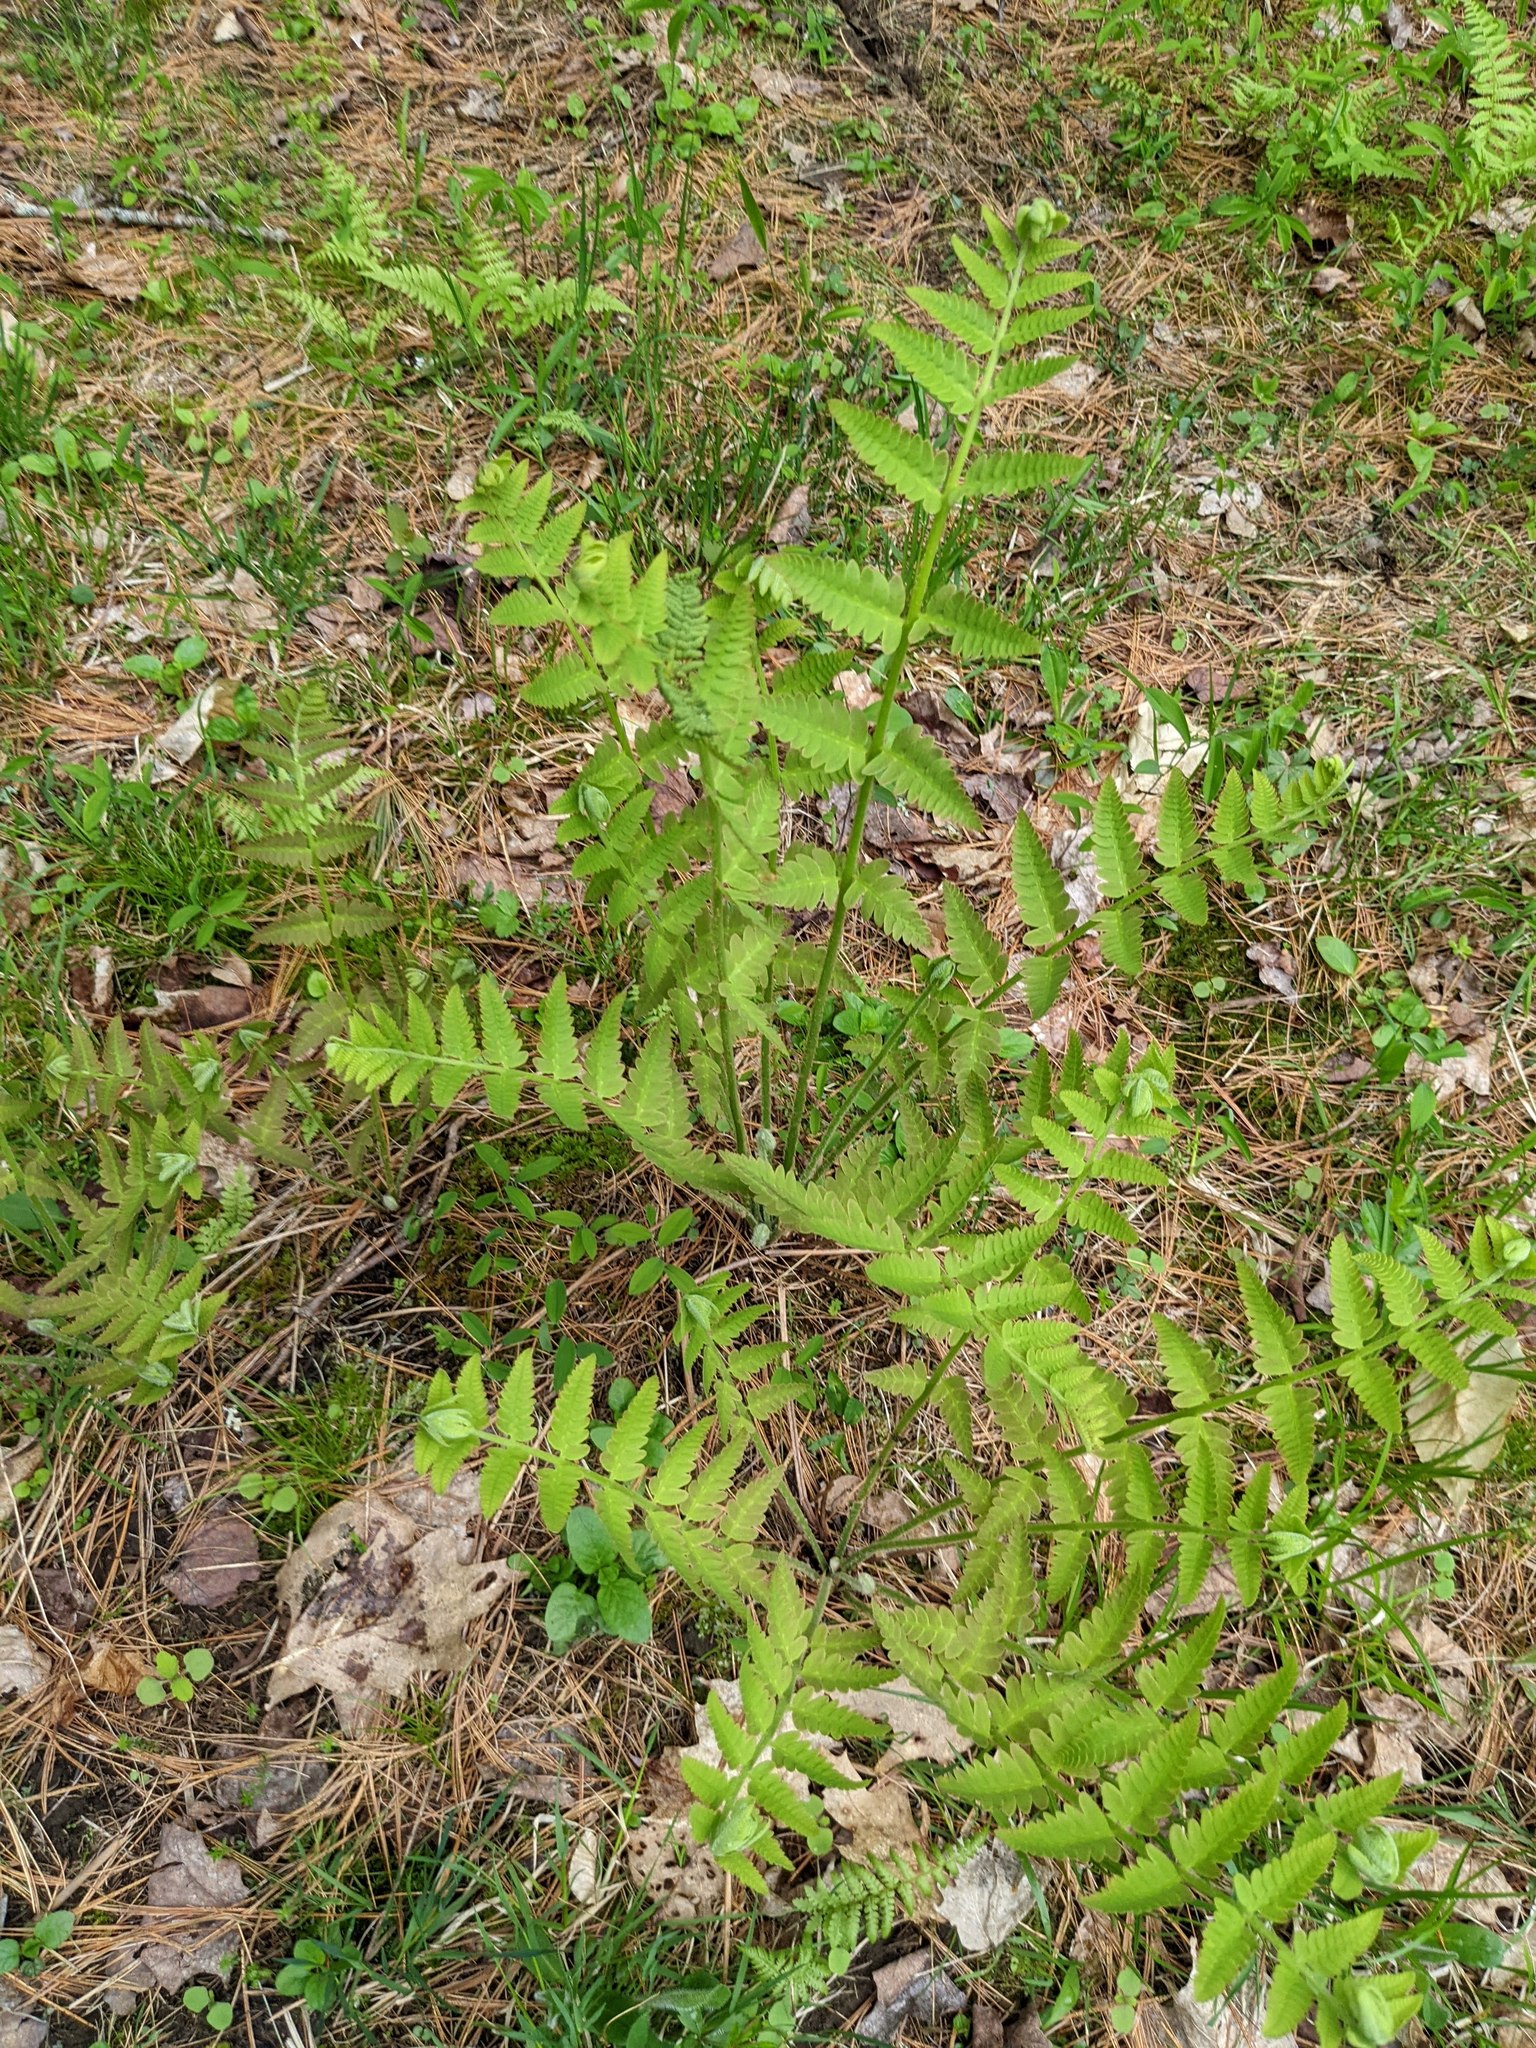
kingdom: Plantae
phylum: Tracheophyta
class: Polypodiopsida
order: Osmundales
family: Osmundaceae
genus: Claytosmunda
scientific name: Claytosmunda claytoniana
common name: Clayton's fern
